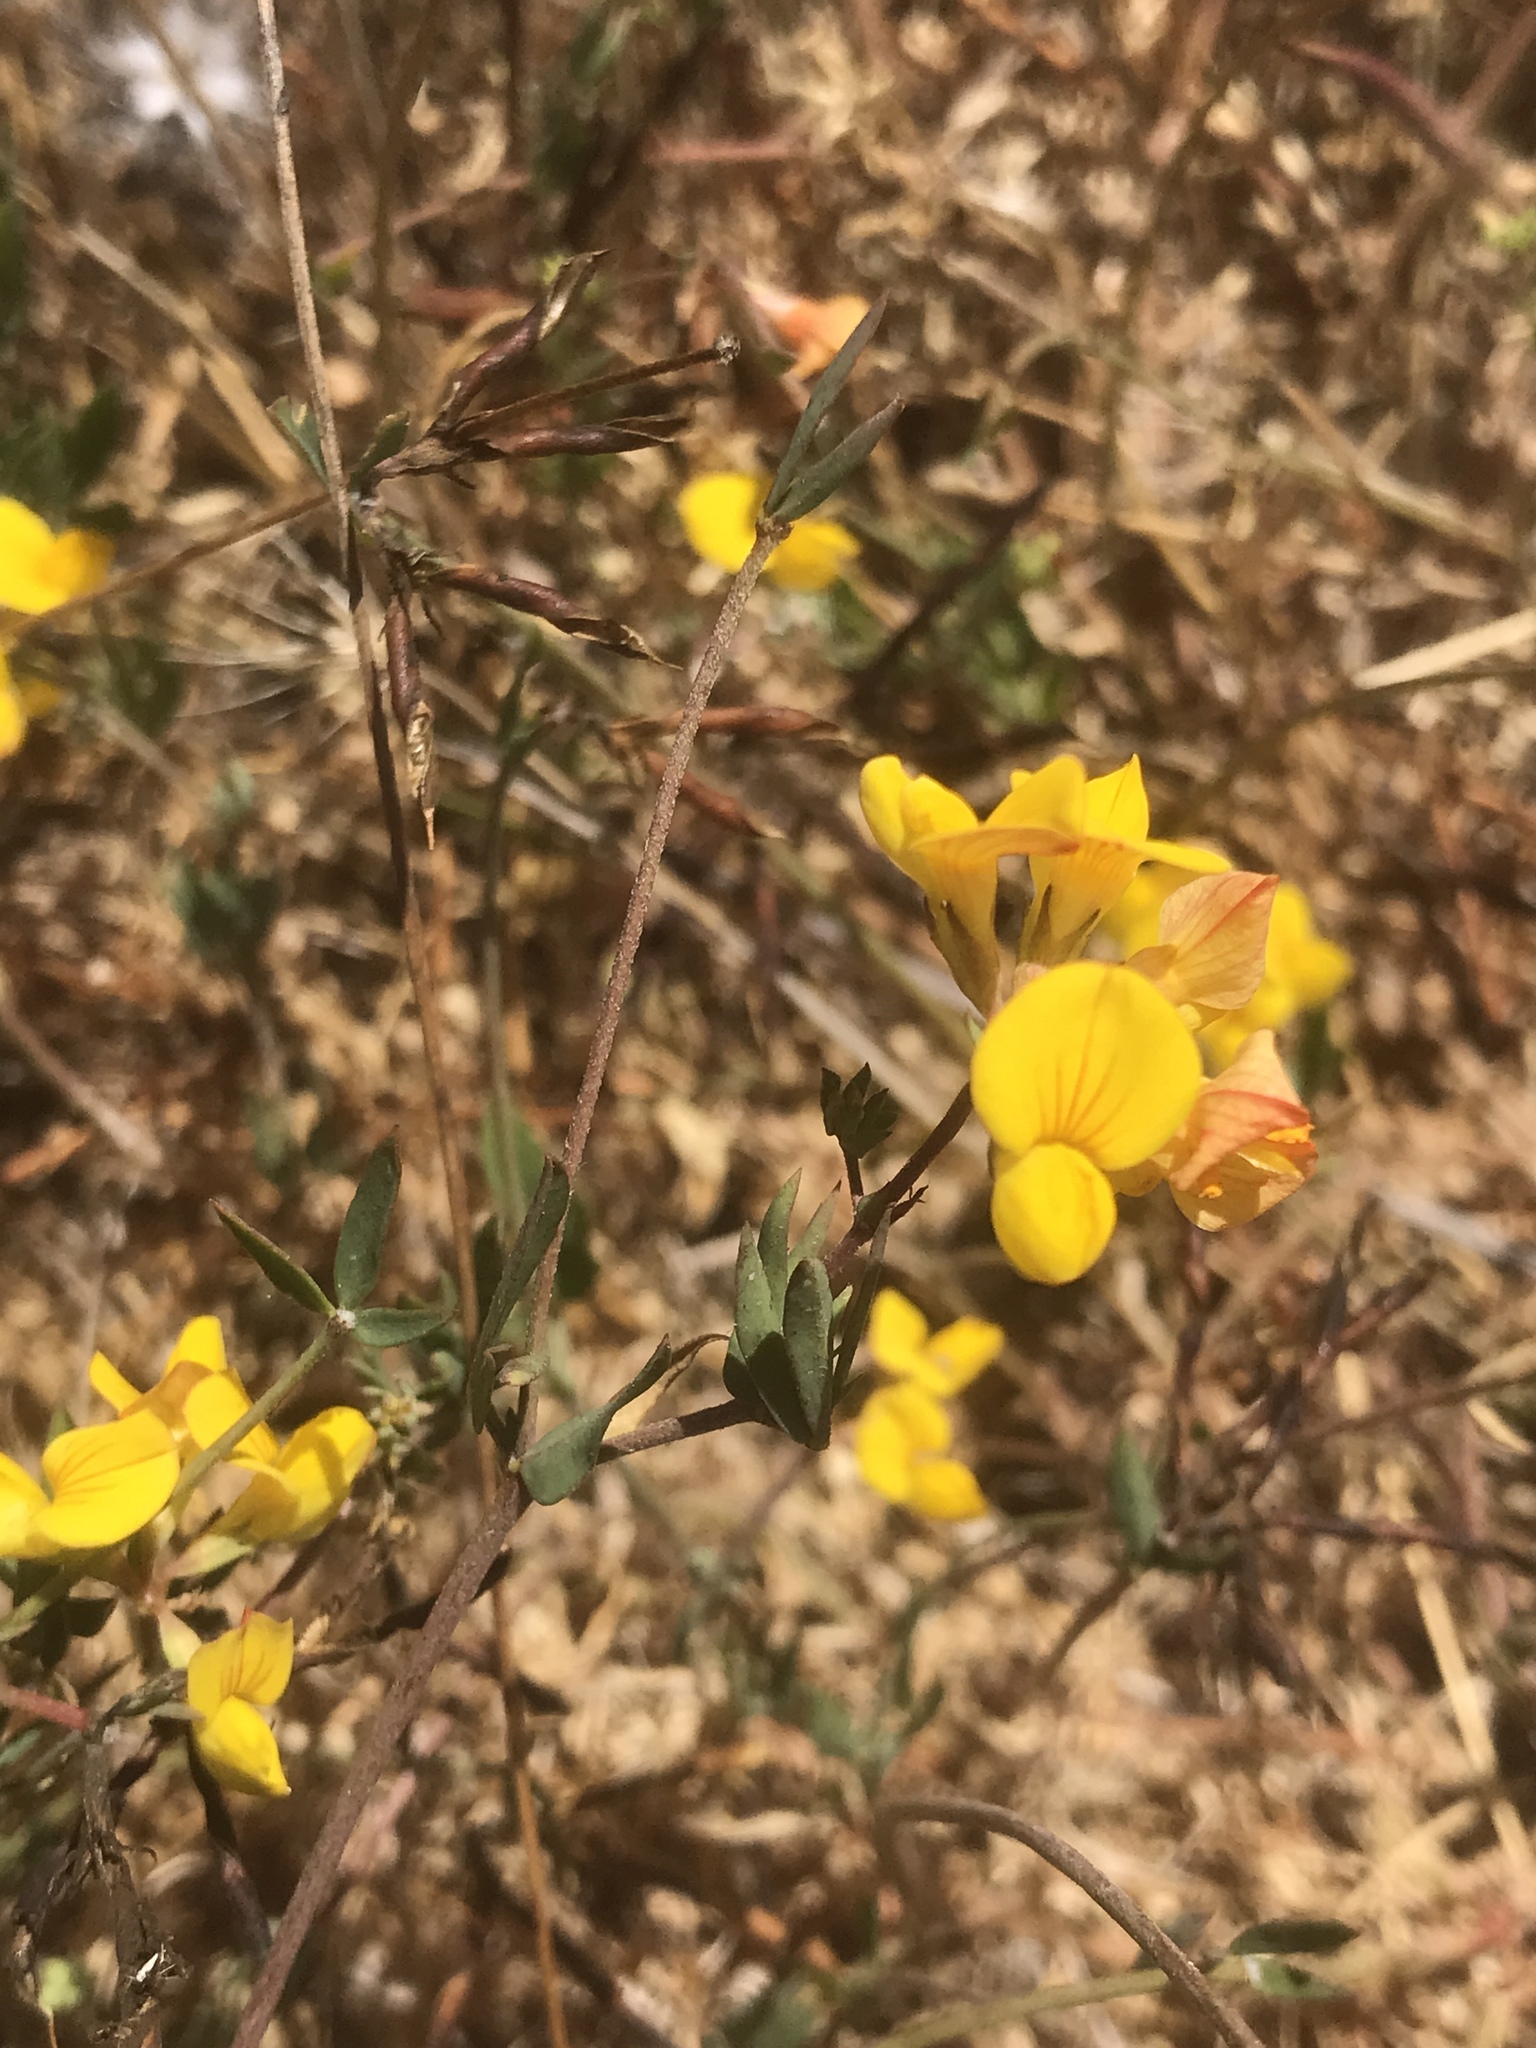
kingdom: Plantae
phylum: Tracheophyta
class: Magnoliopsida
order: Fabales
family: Fabaceae
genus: Lotus
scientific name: Lotus corniculatus
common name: Common bird's-foot-trefoil
